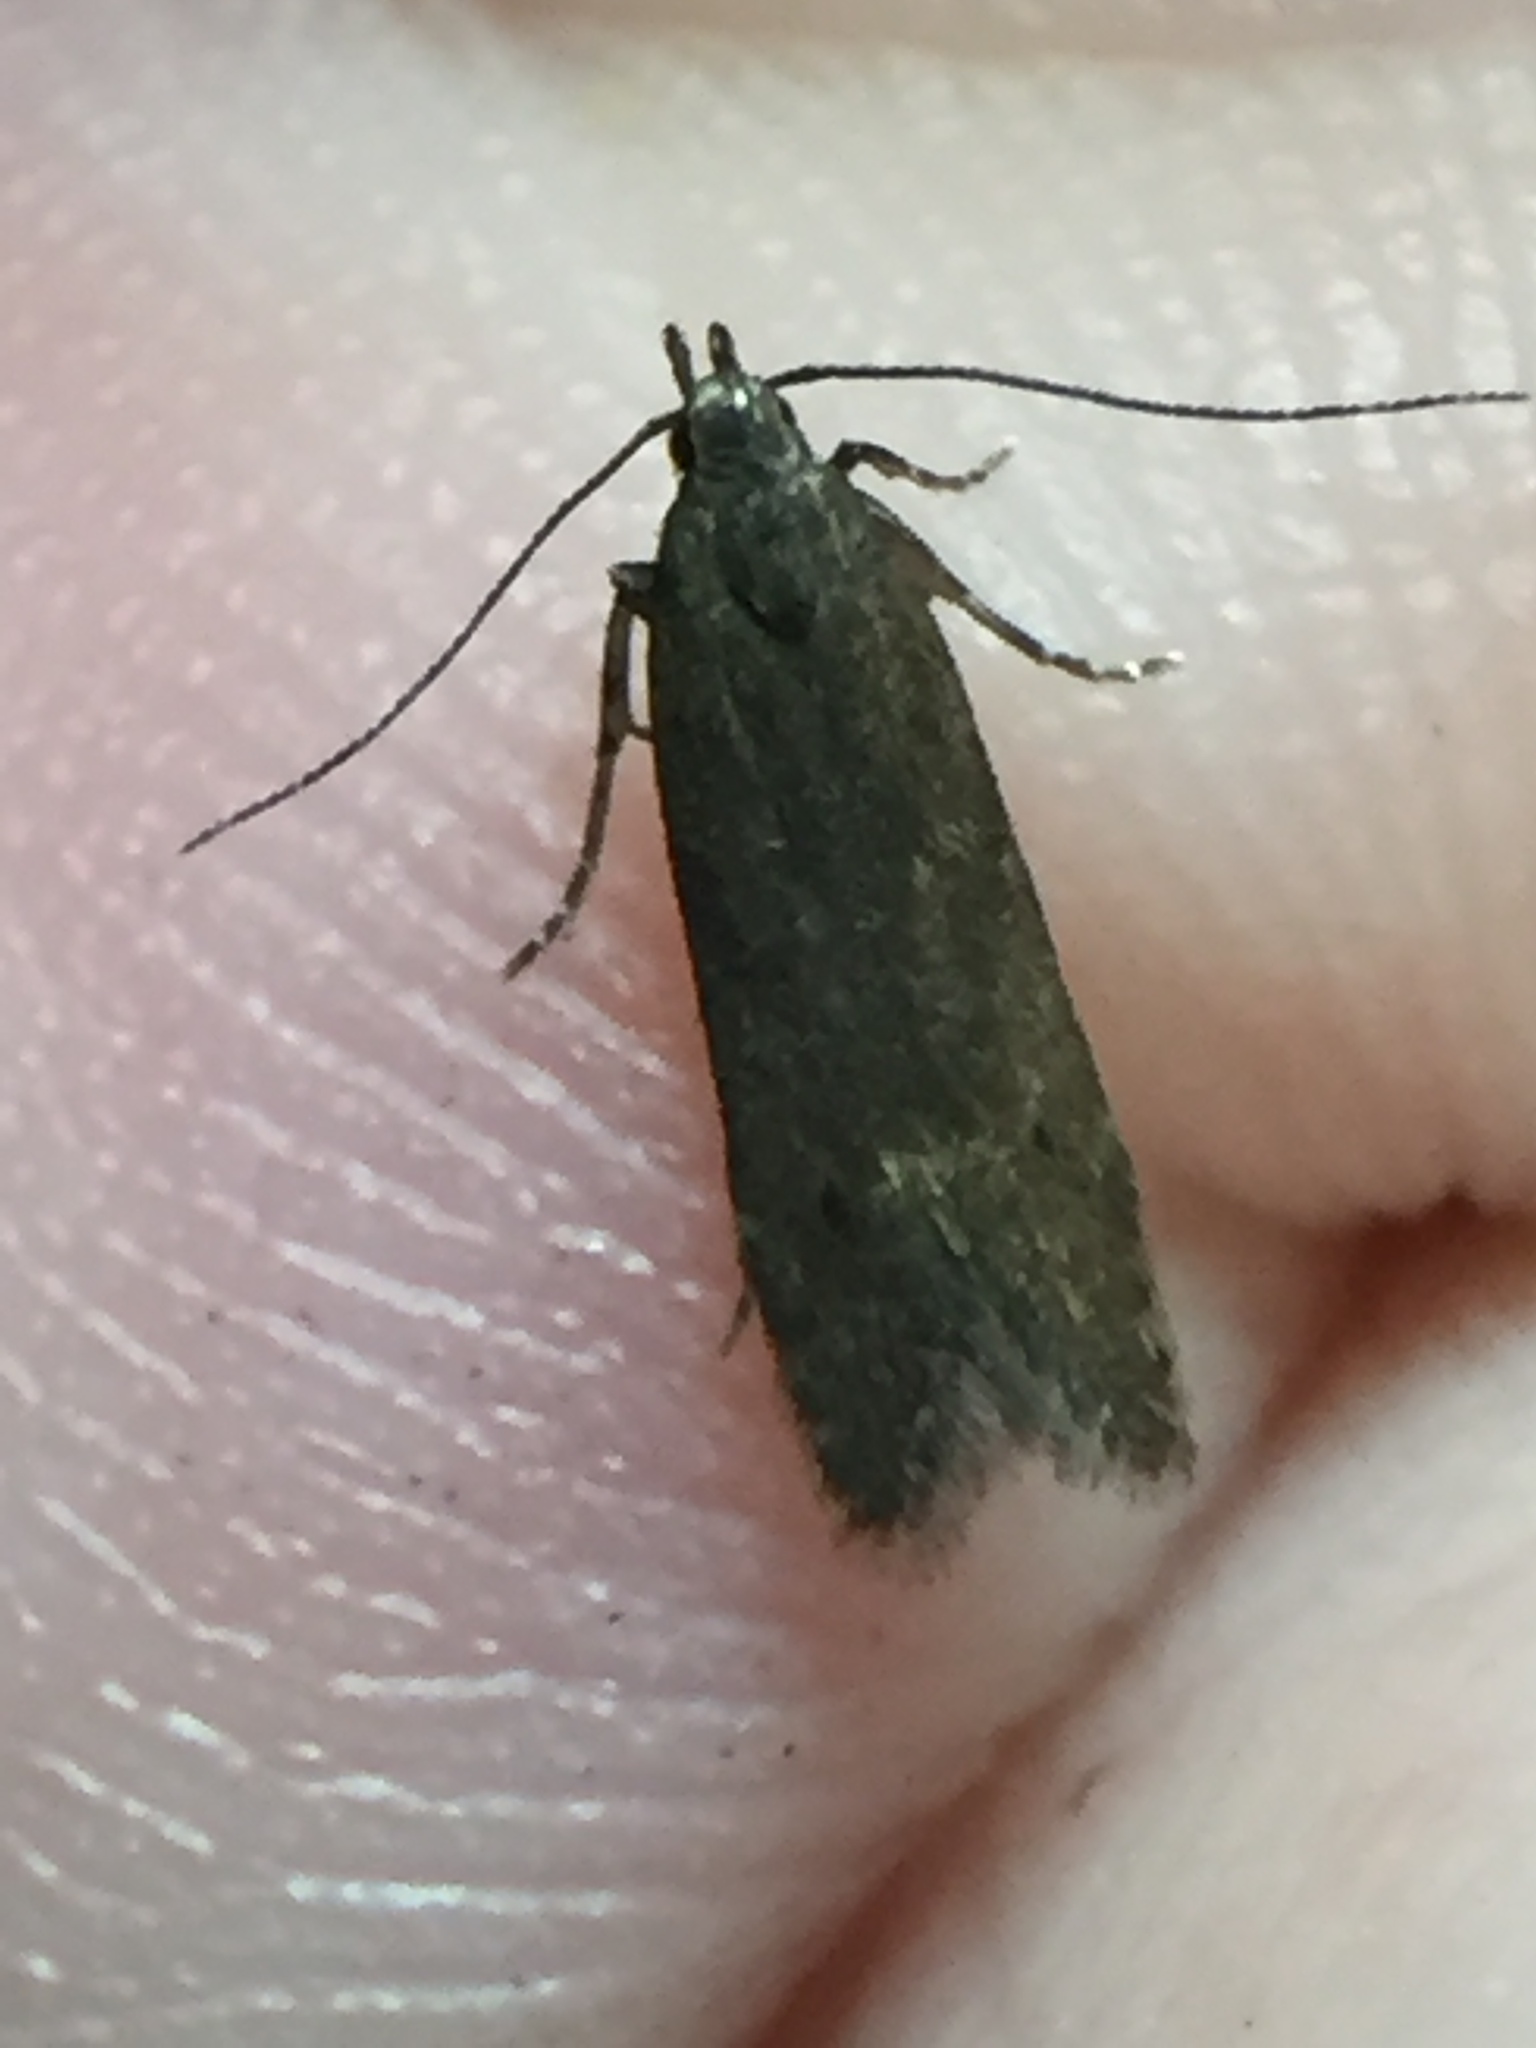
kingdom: Animalia
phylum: Arthropoda
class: Insecta
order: Lepidoptera
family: Gelechiidae
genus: Monochroa
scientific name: Monochroa
